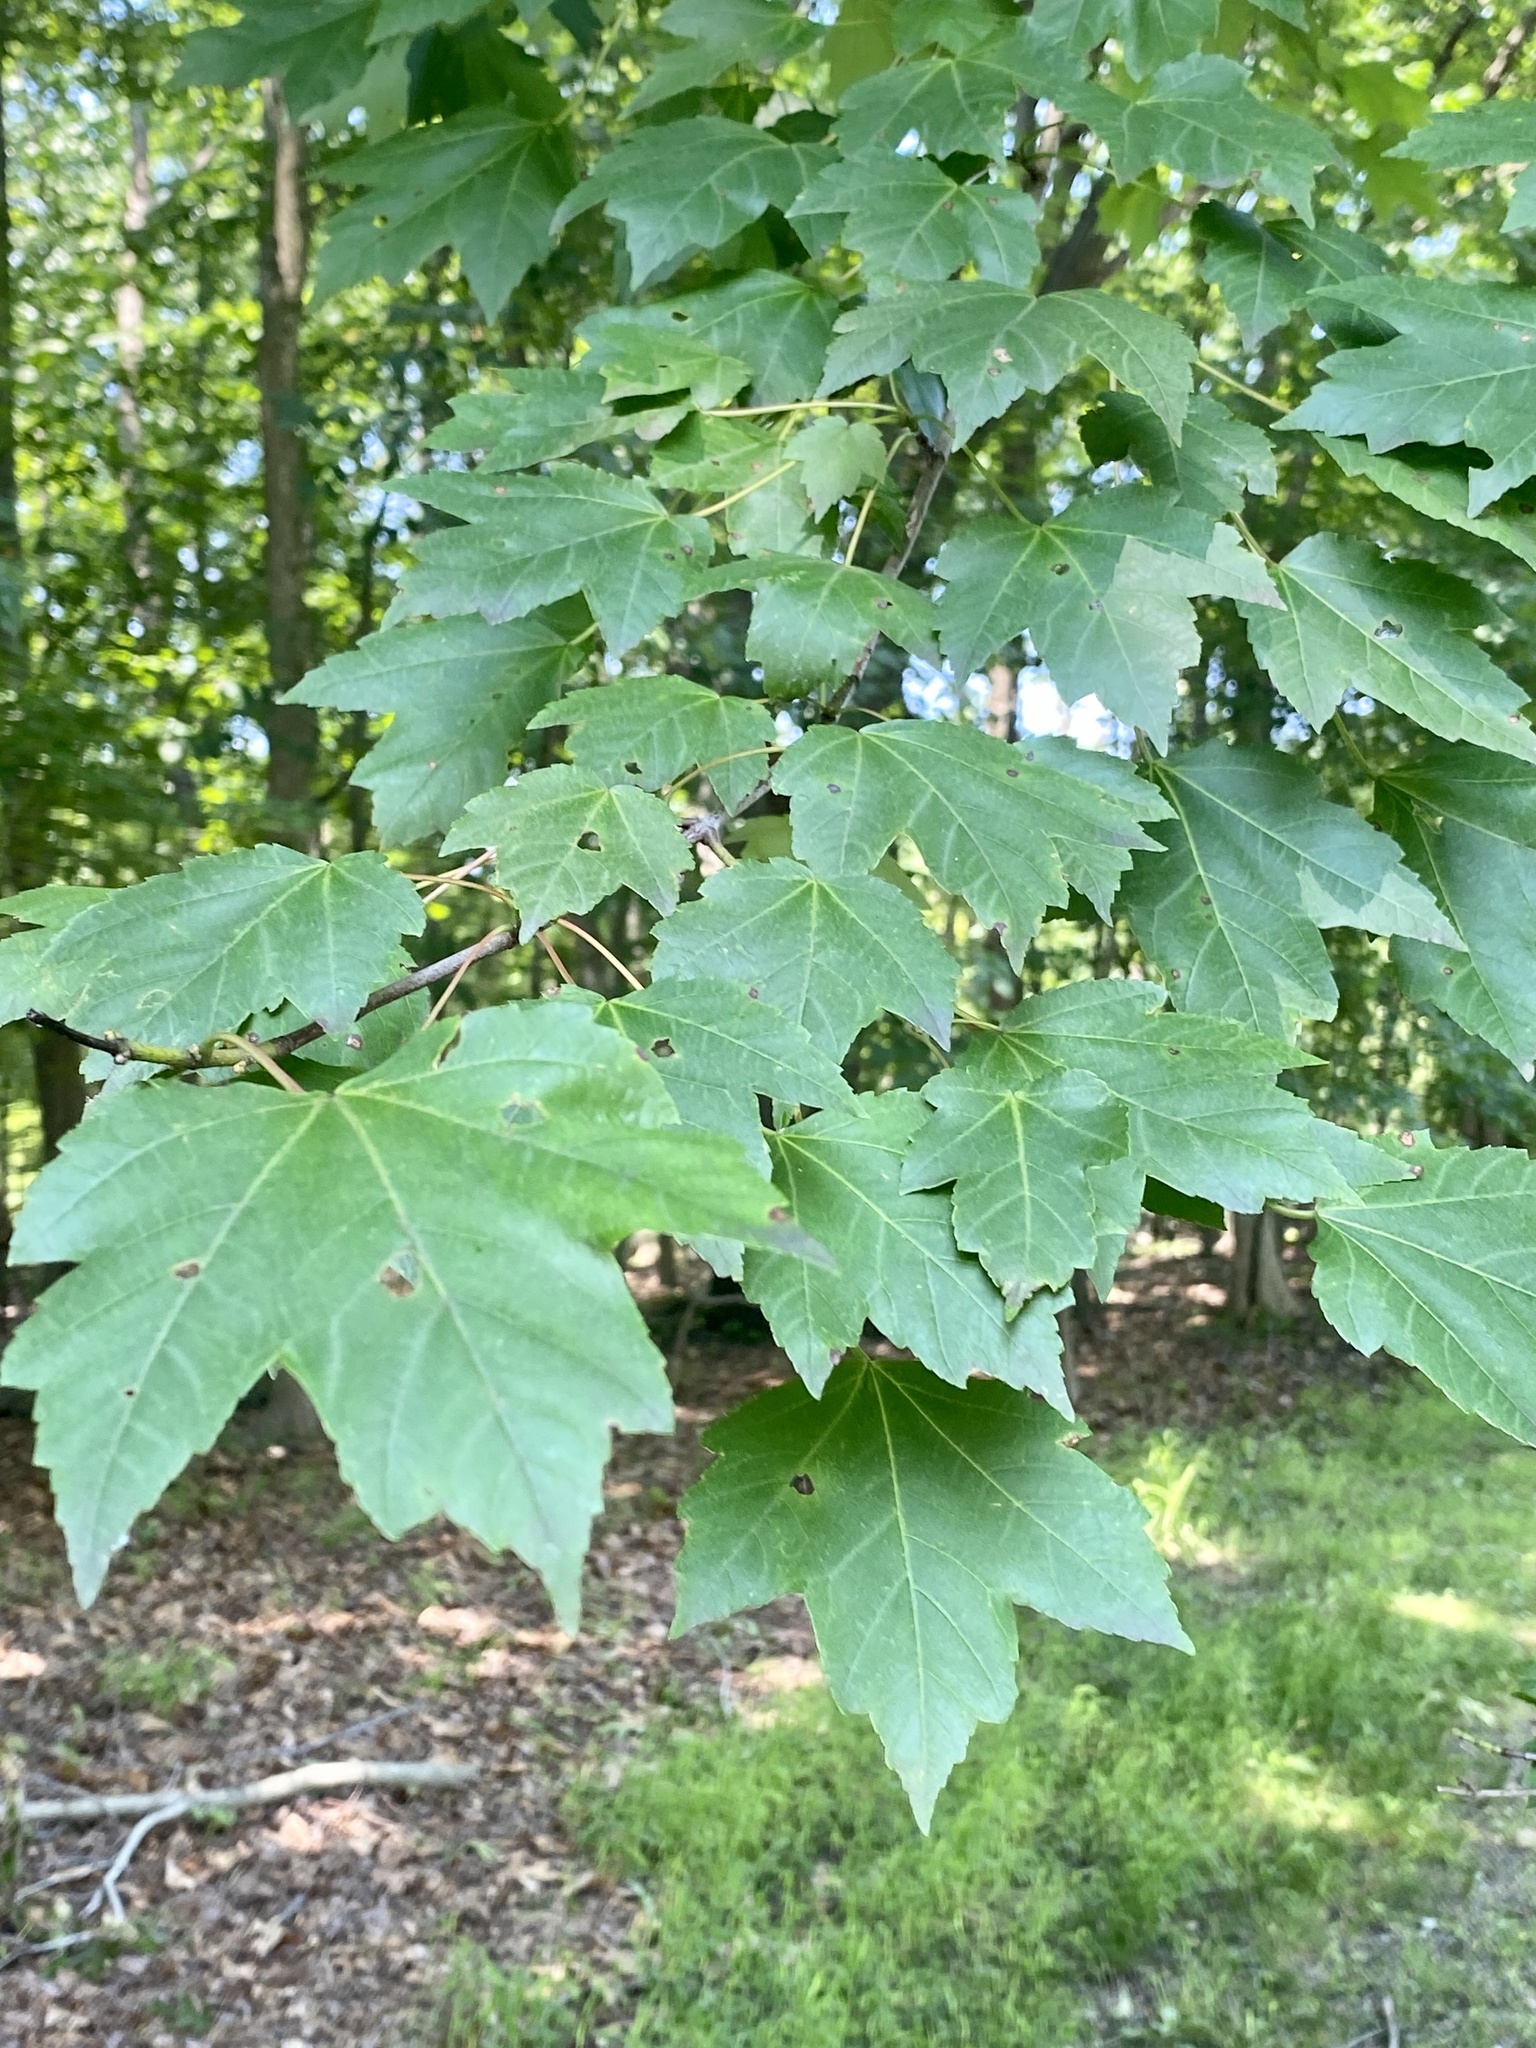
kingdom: Plantae
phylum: Tracheophyta
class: Magnoliopsida
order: Sapindales
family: Sapindaceae
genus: Acer
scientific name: Acer rubrum
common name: Red maple
